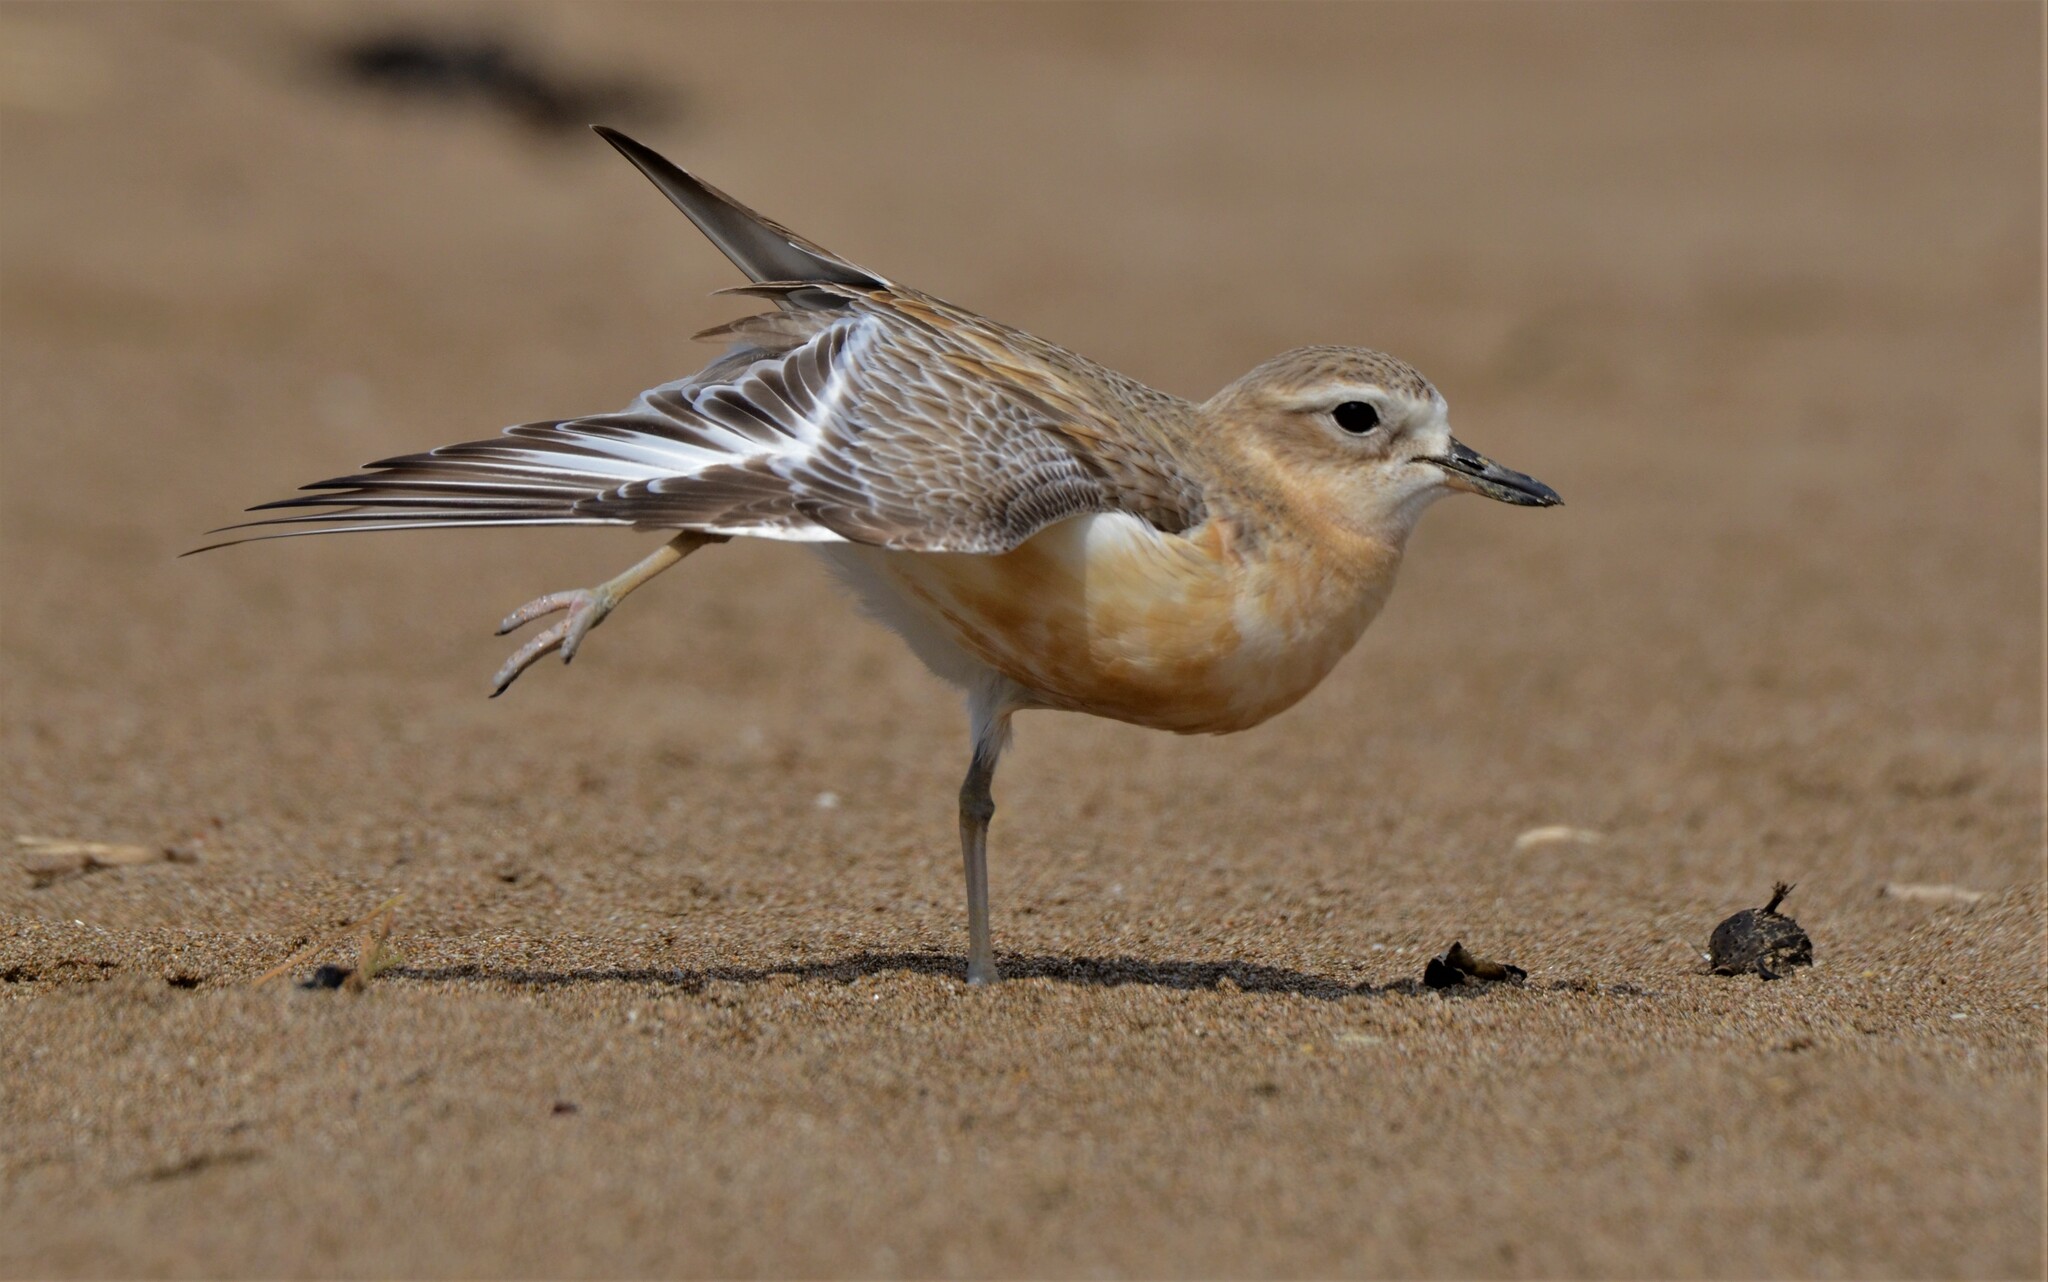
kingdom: Animalia
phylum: Chordata
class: Aves
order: Charadriiformes
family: Charadriidae
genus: Anarhynchus
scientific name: Anarhynchus
